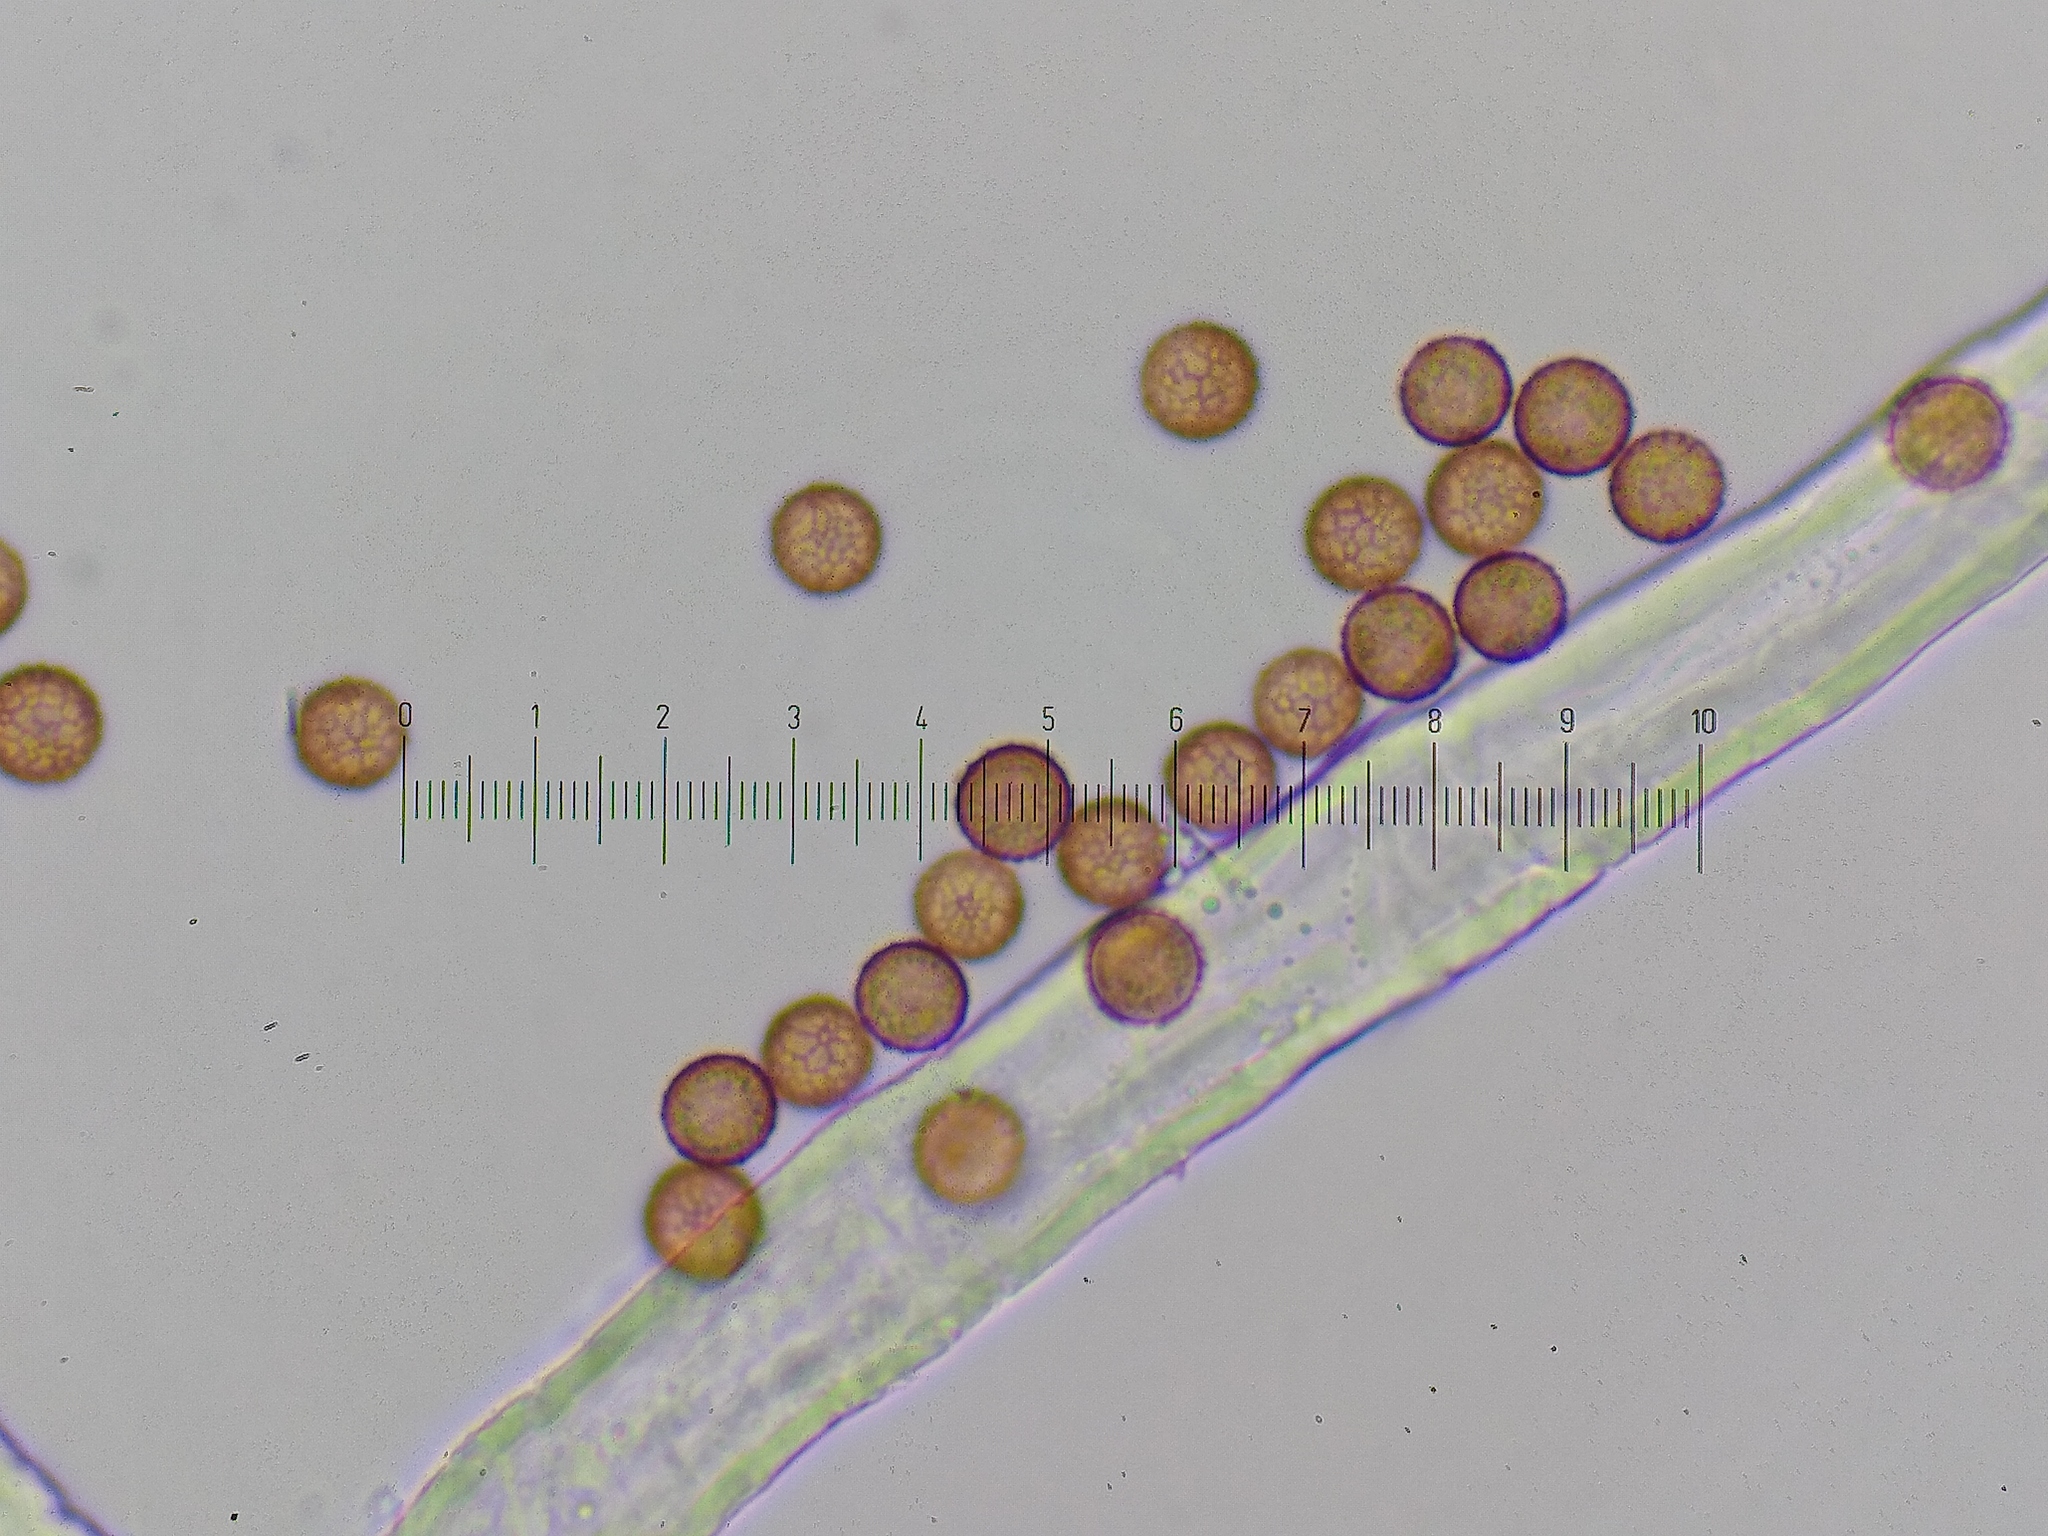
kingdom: Protozoa
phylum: Mycetozoa
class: Myxomycetes
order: Stemonitidales
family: Stemonitidaceae
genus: Stemonitis
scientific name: Stemonitis fusca
